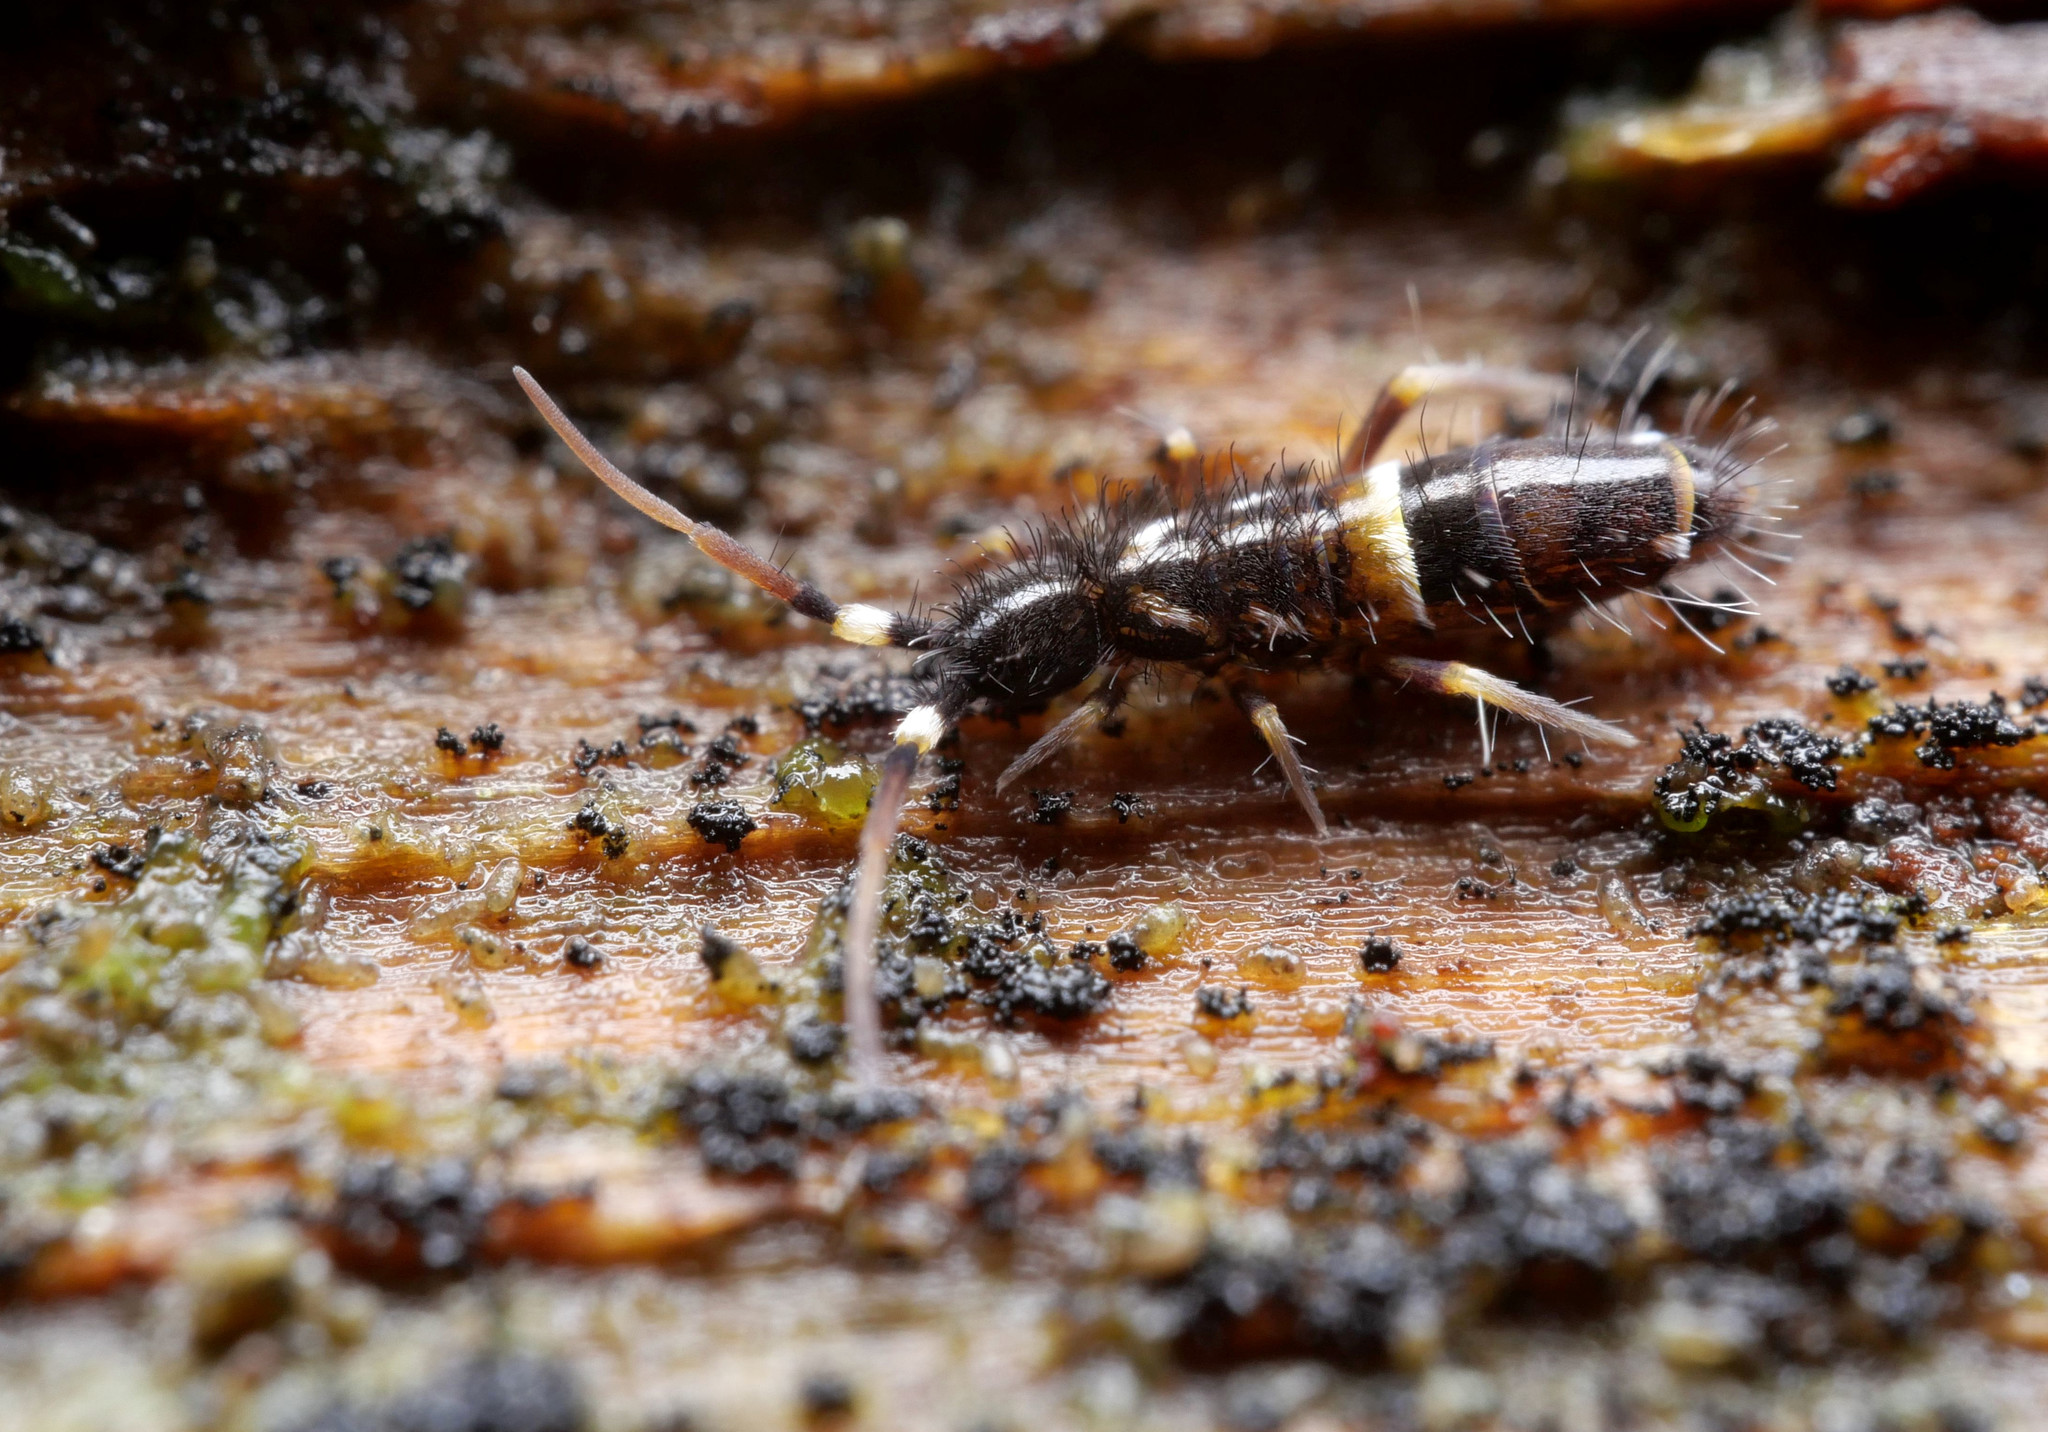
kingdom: Animalia
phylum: Arthropoda
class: Collembola
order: Entomobryomorpha
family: Orchesellidae
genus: Orchesella
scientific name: Orchesella cincta
